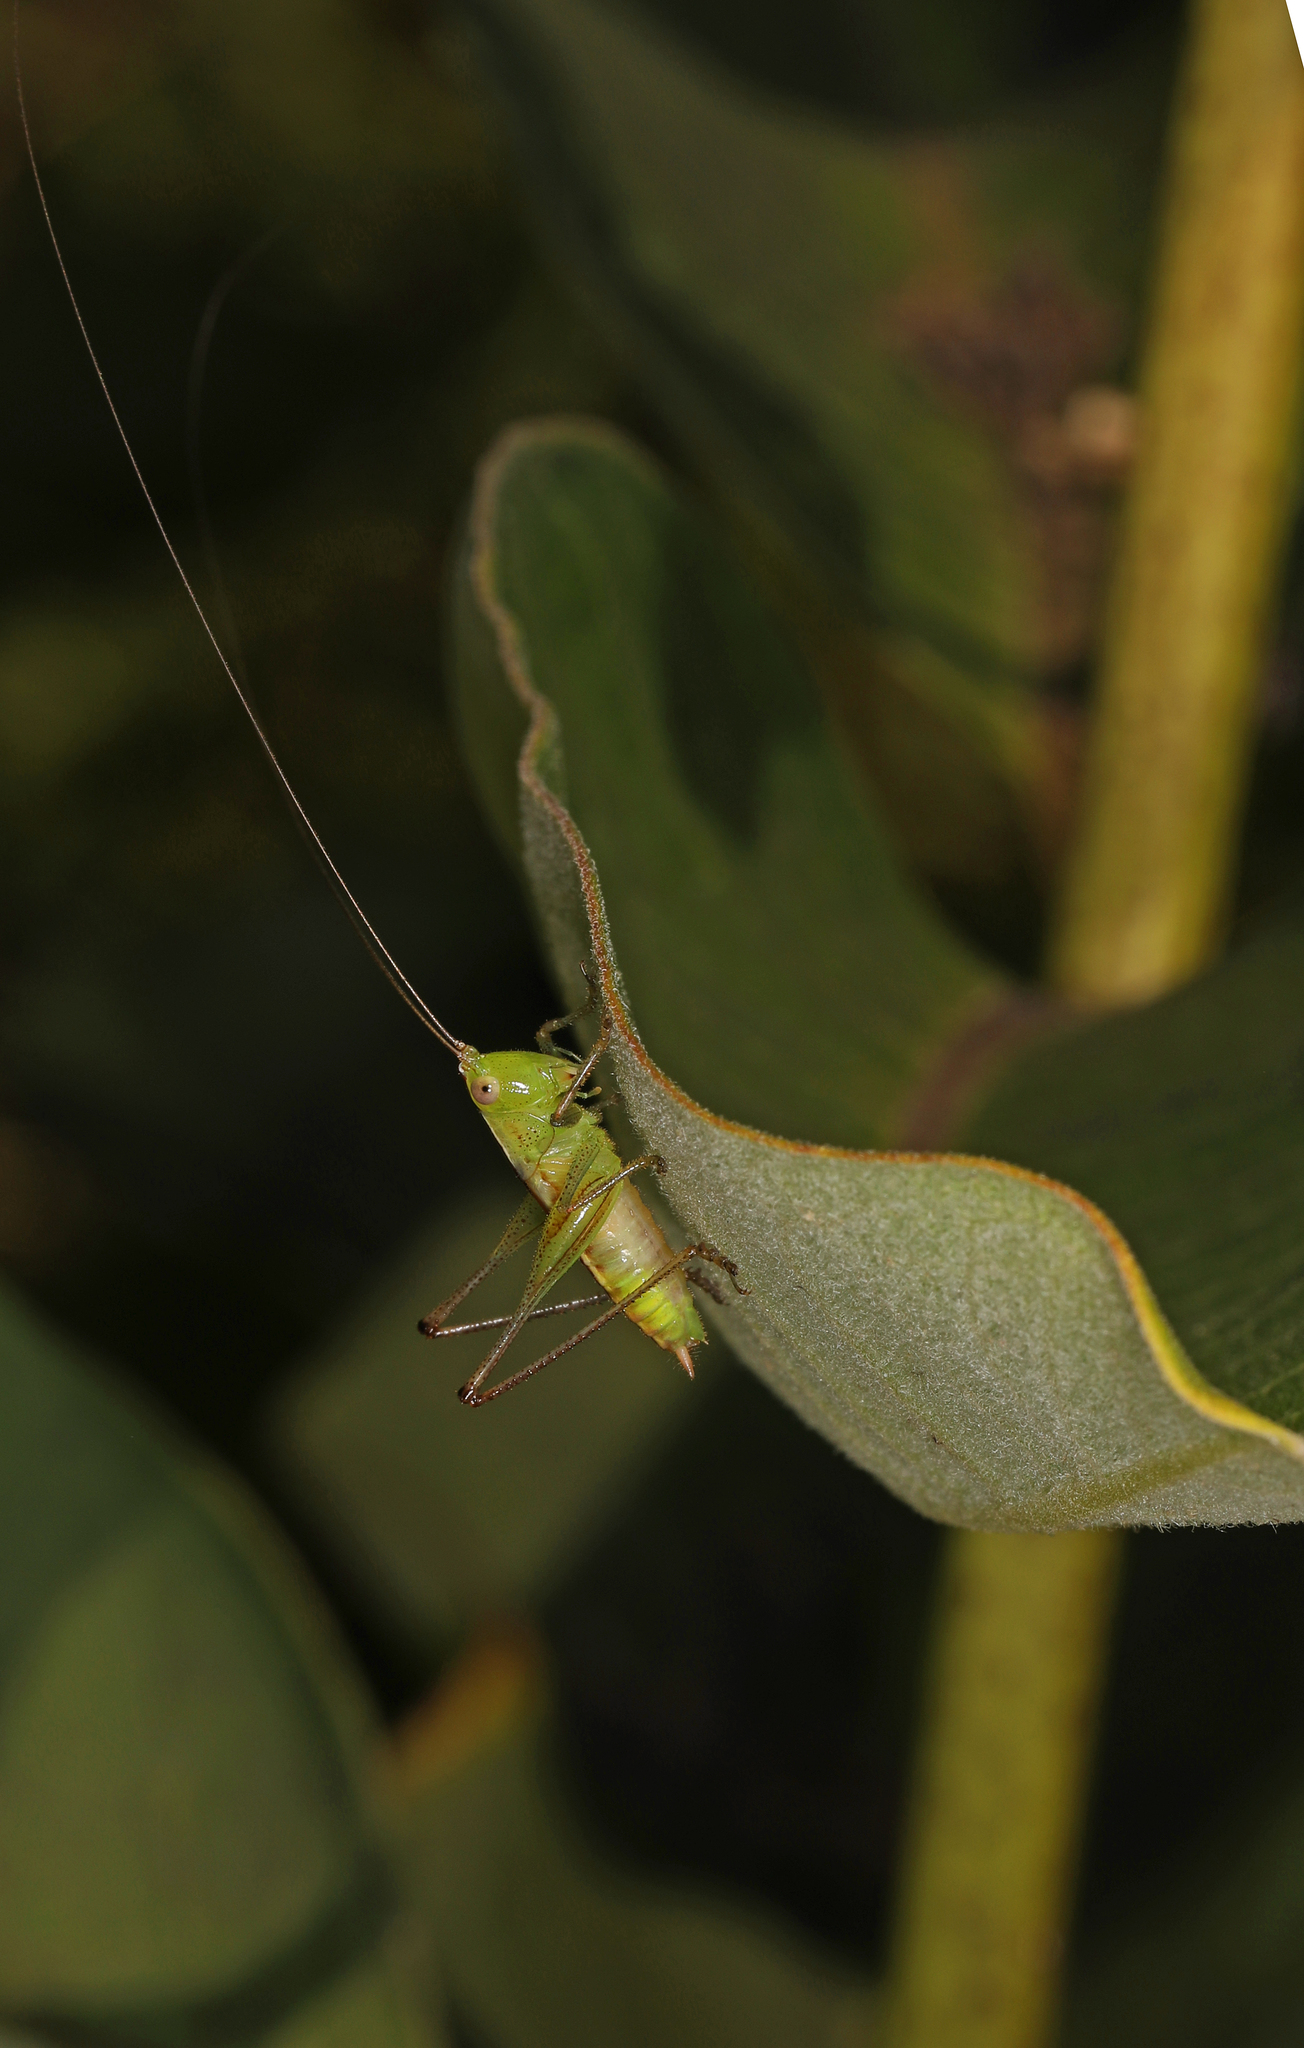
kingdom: Animalia
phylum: Arthropoda
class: Insecta
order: Orthoptera
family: Tettigoniidae
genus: Conocephalus
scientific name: Conocephalus
